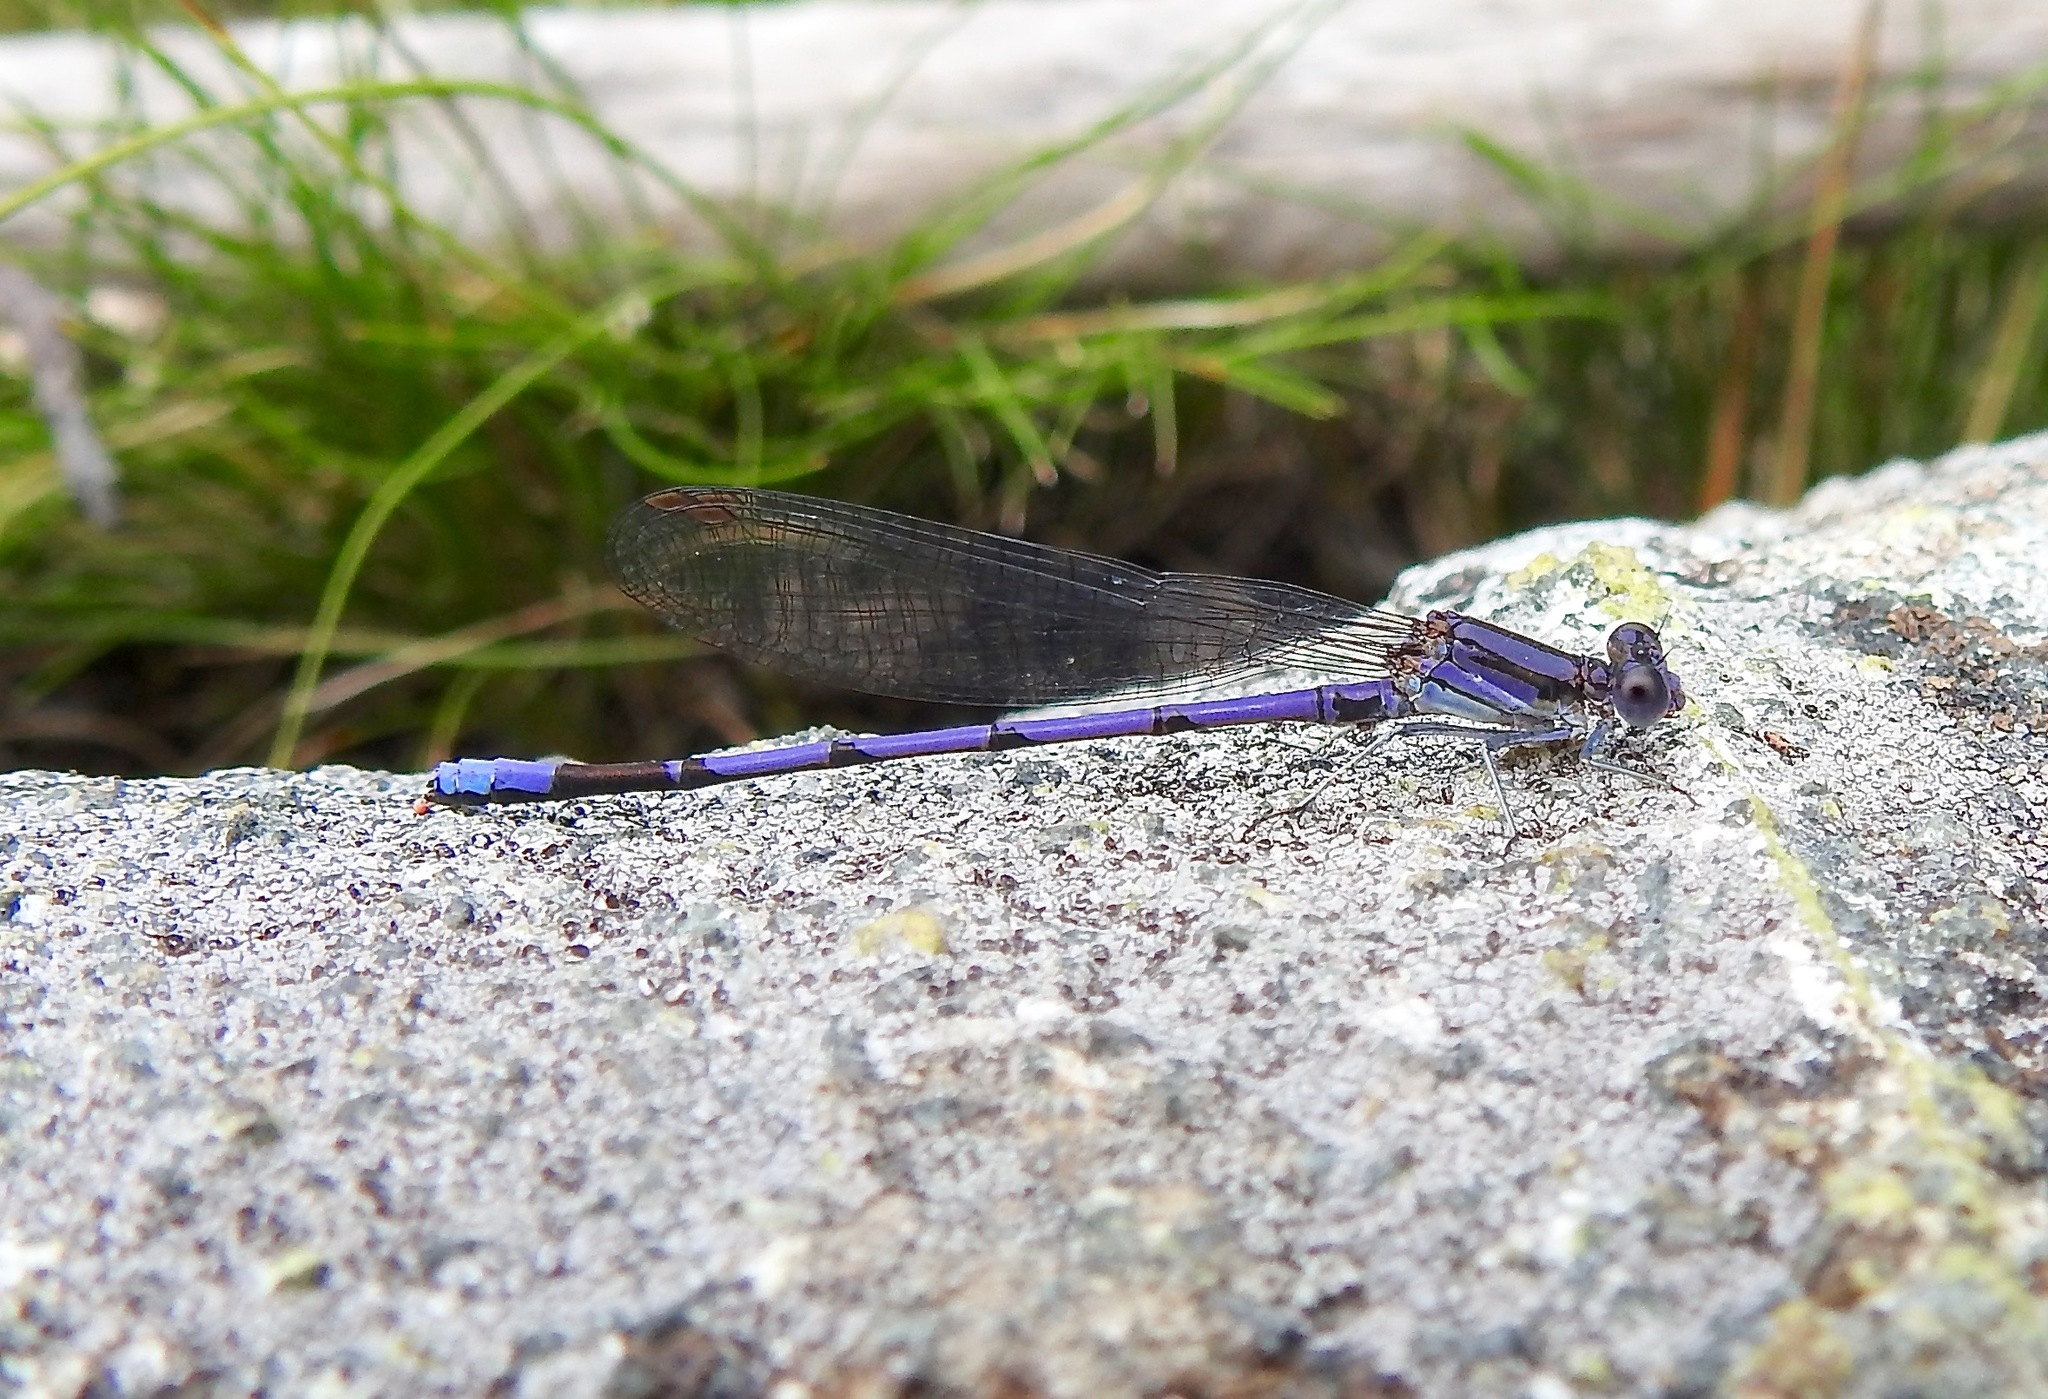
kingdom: Animalia
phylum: Arthropoda
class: Insecta
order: Odonata
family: Coenagrionidae
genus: Argia
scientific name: Argia fumipennis
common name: Variable dancer
